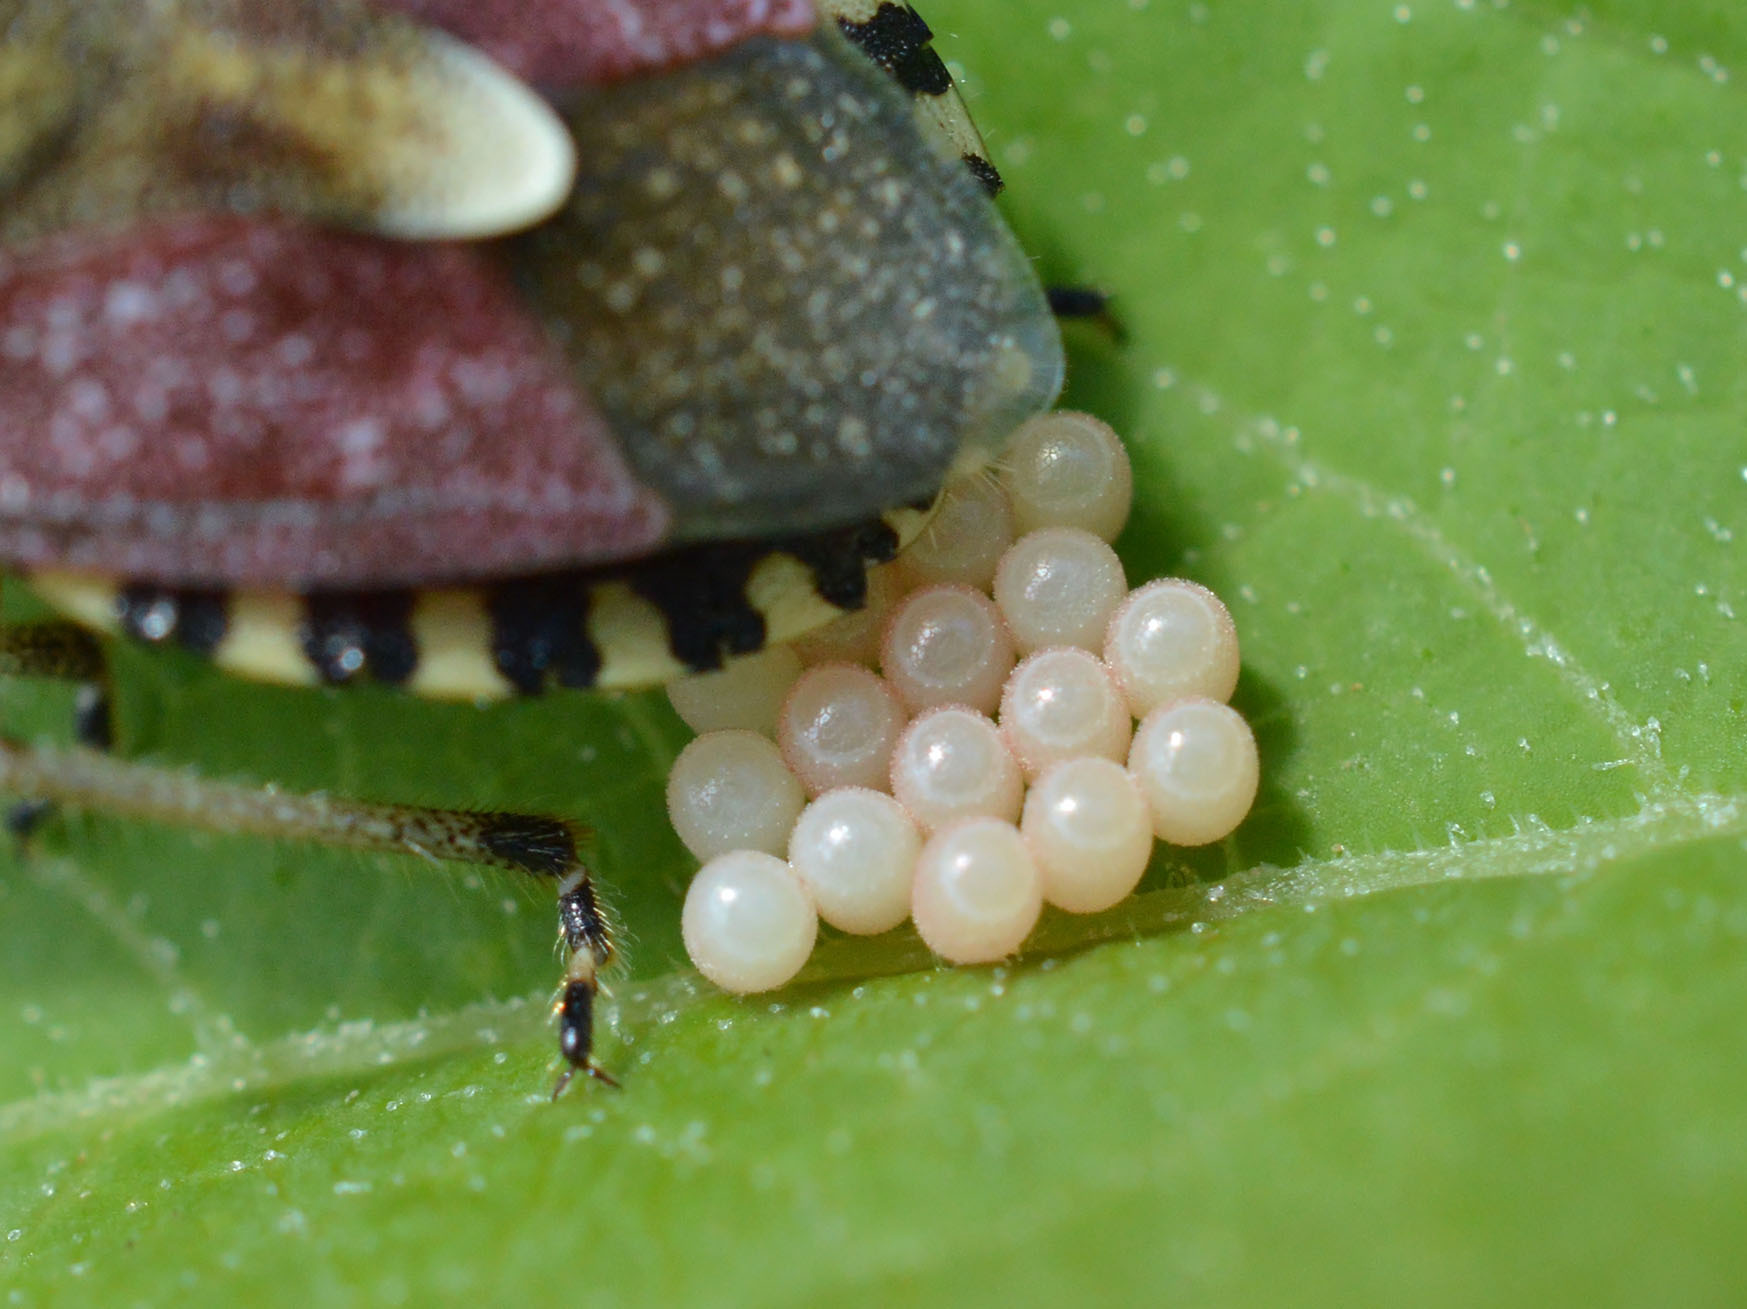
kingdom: Animalia
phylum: Arthropoda
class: Insecta
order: Hemiptera
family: Pentatomidae
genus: Dolycoris
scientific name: Dolycoris baccarum
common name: Sloe bug
